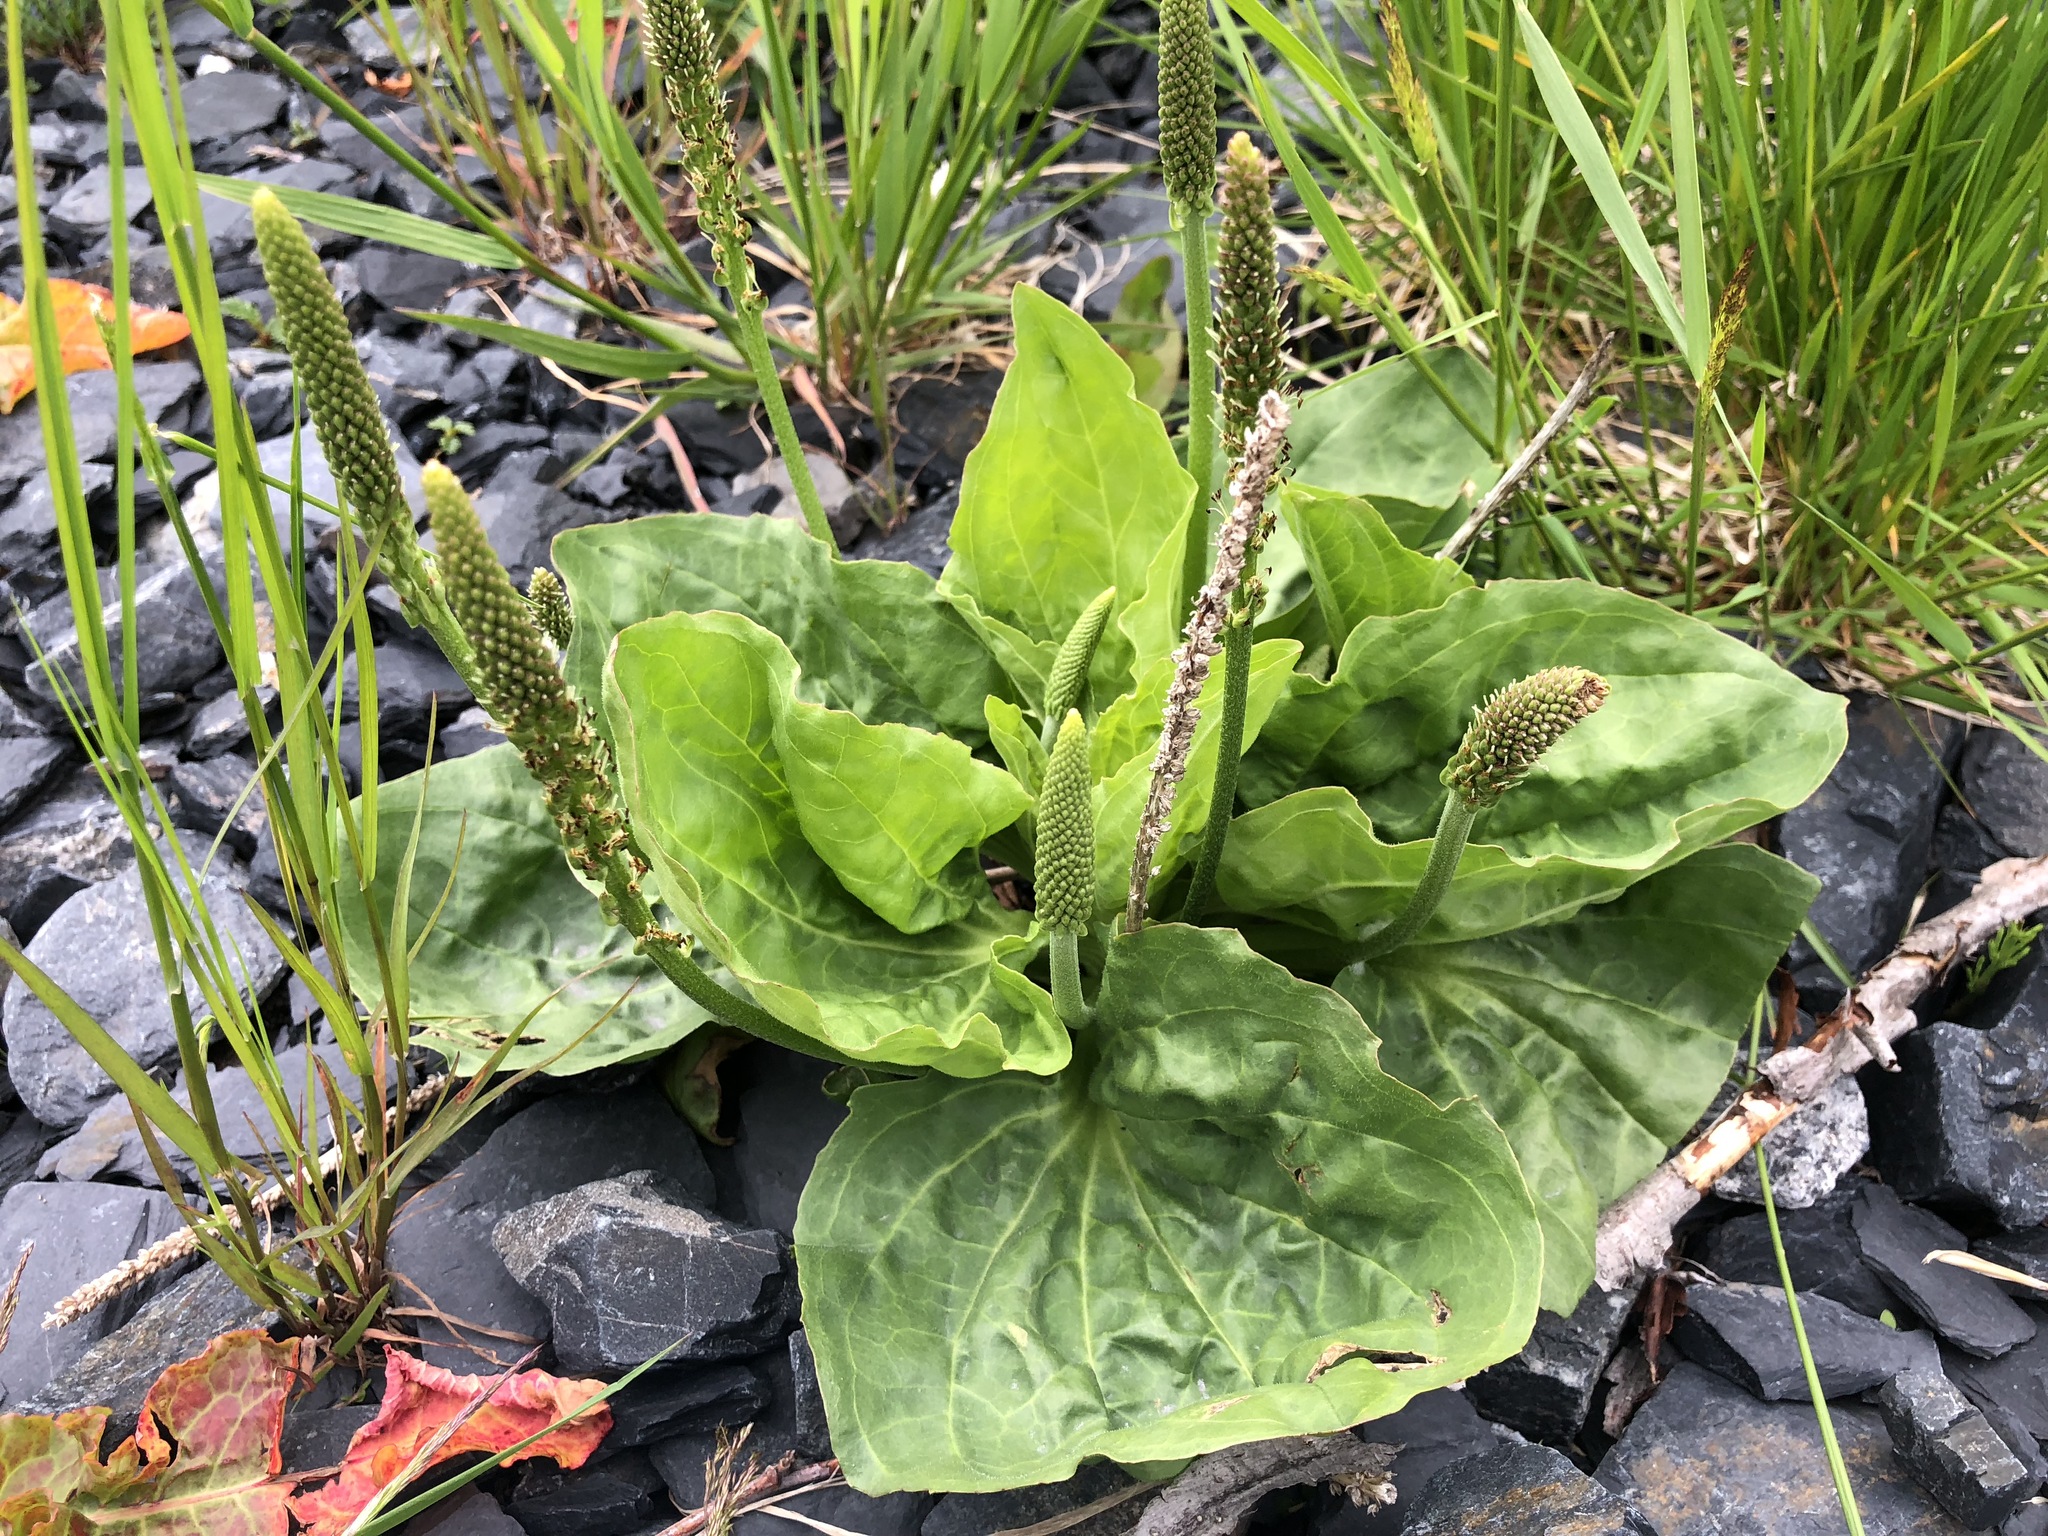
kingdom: Plantae
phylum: Tracheophyta
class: Magnoliopsida
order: Lamiales
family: Plantaginaceae
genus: Plantago
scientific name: Plantago major
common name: Common plantain
